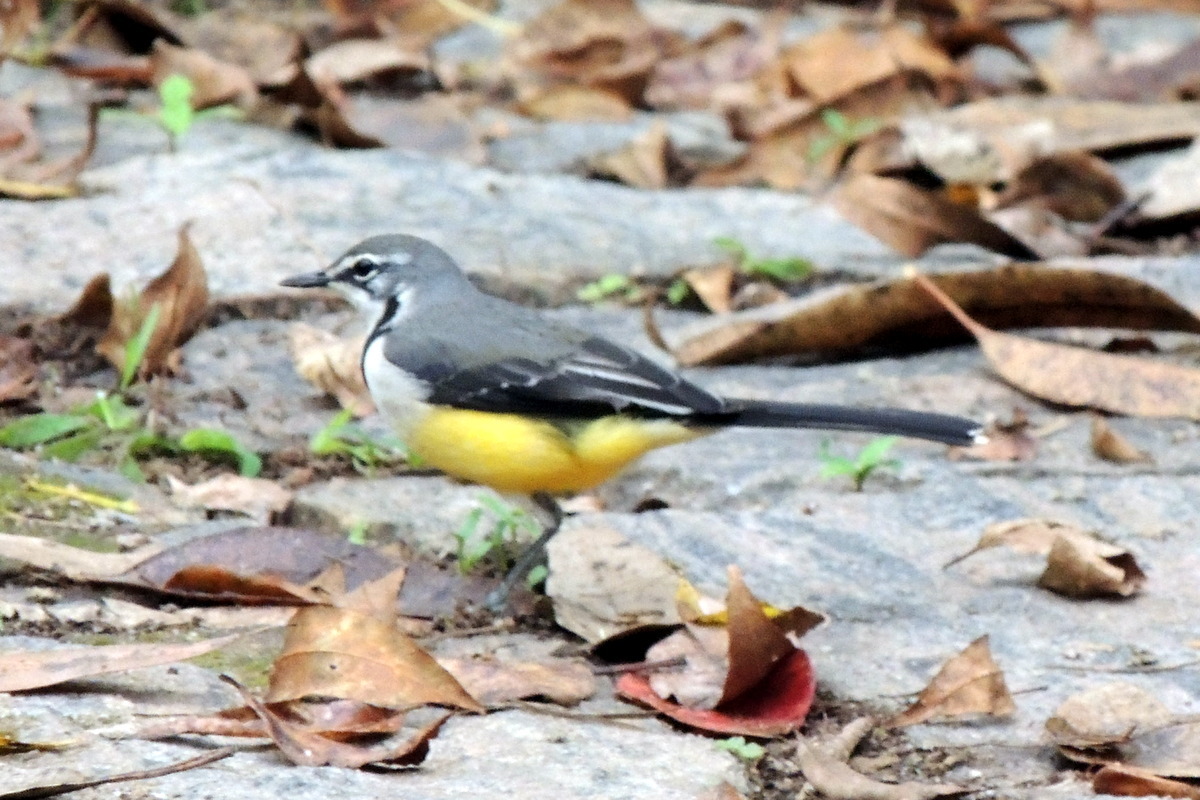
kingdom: Animalia
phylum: Chordata
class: Aves
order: Passeriformes
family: Motacillidae
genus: Motacilla
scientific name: Motacilla flaviventris
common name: Madagascar wagtail
